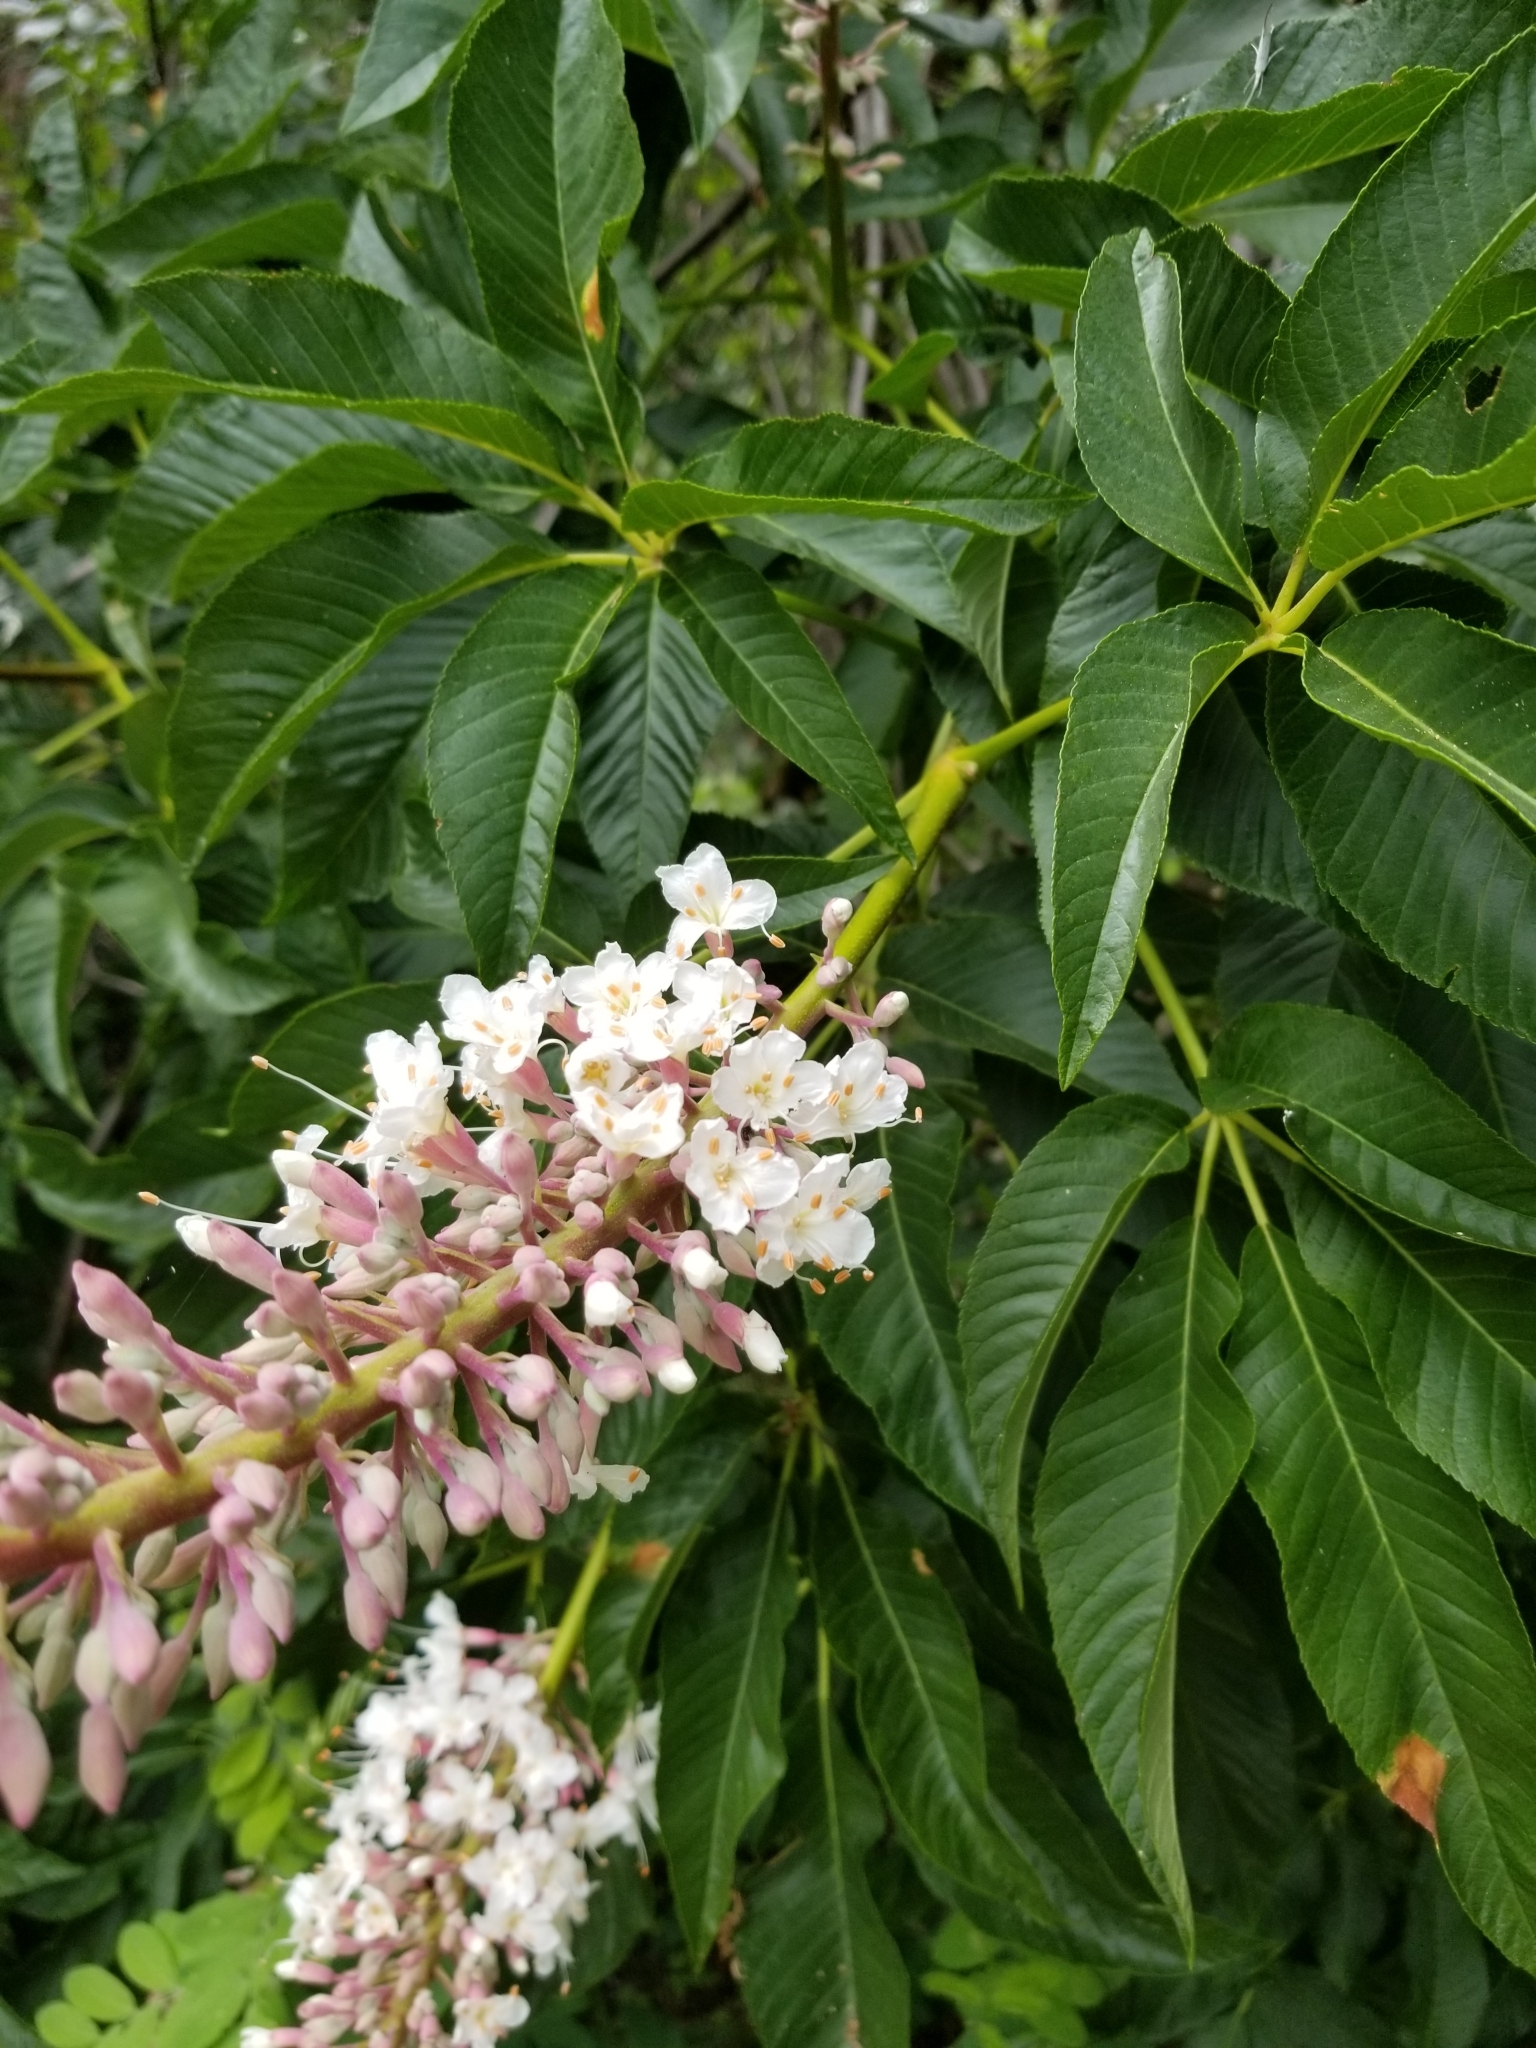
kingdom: Plantae
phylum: Tracheophyta
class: Magnoliopsida
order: Sapindales
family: Sapindaceae
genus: Aesculus
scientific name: Aesculus californica
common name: California buckeye
